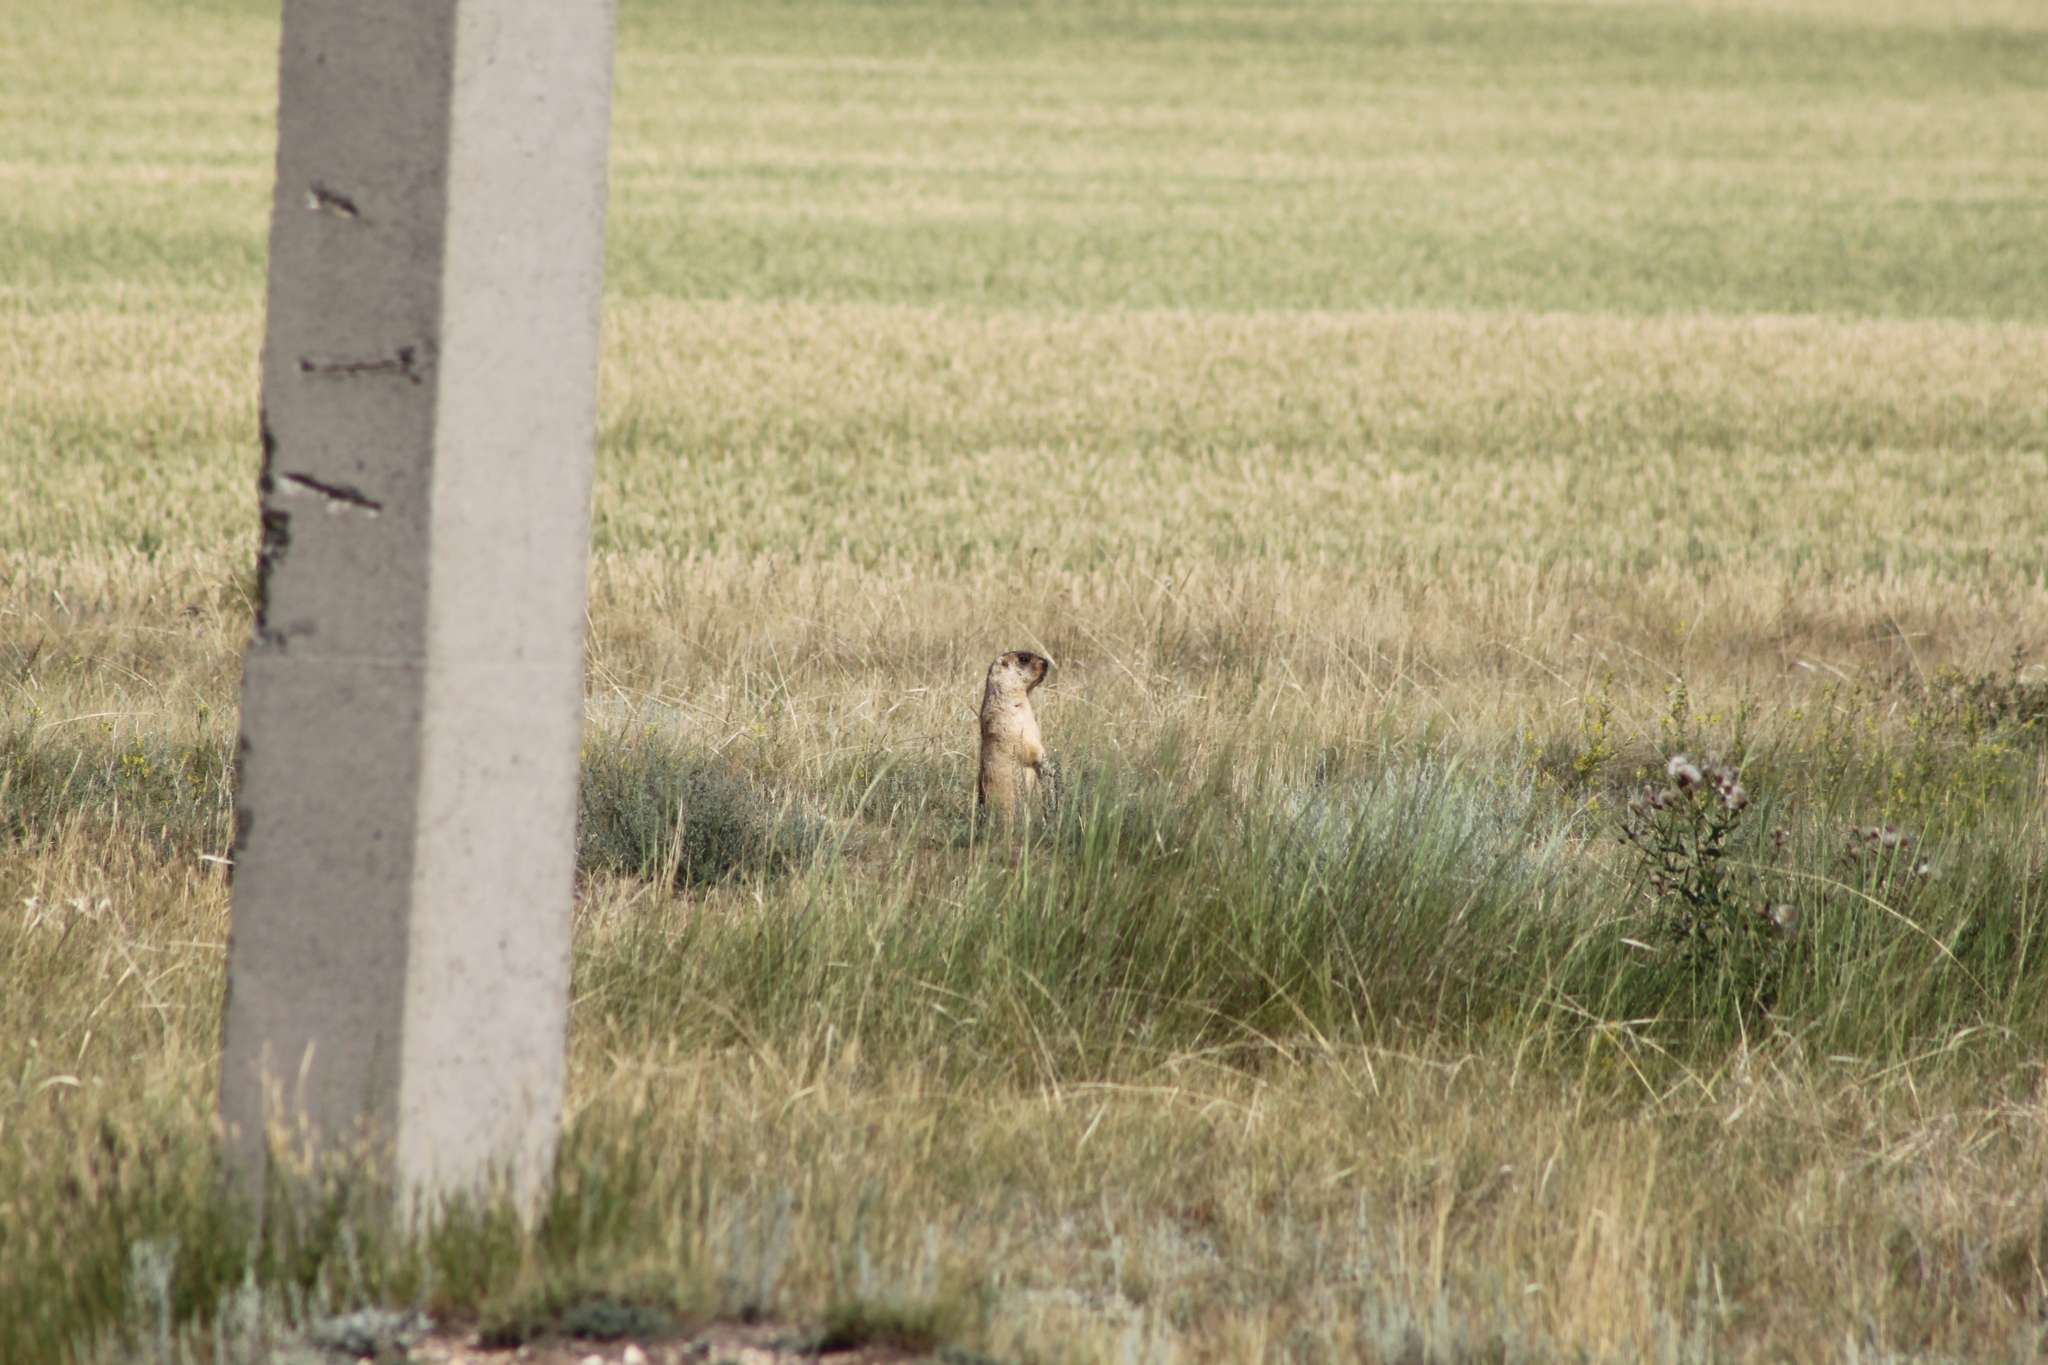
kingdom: Animalia
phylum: Chordata
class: Mammalia
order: Rodentia
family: Sciuridae
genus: Marmota
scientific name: Marmota bobak
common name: Bobak marmot
